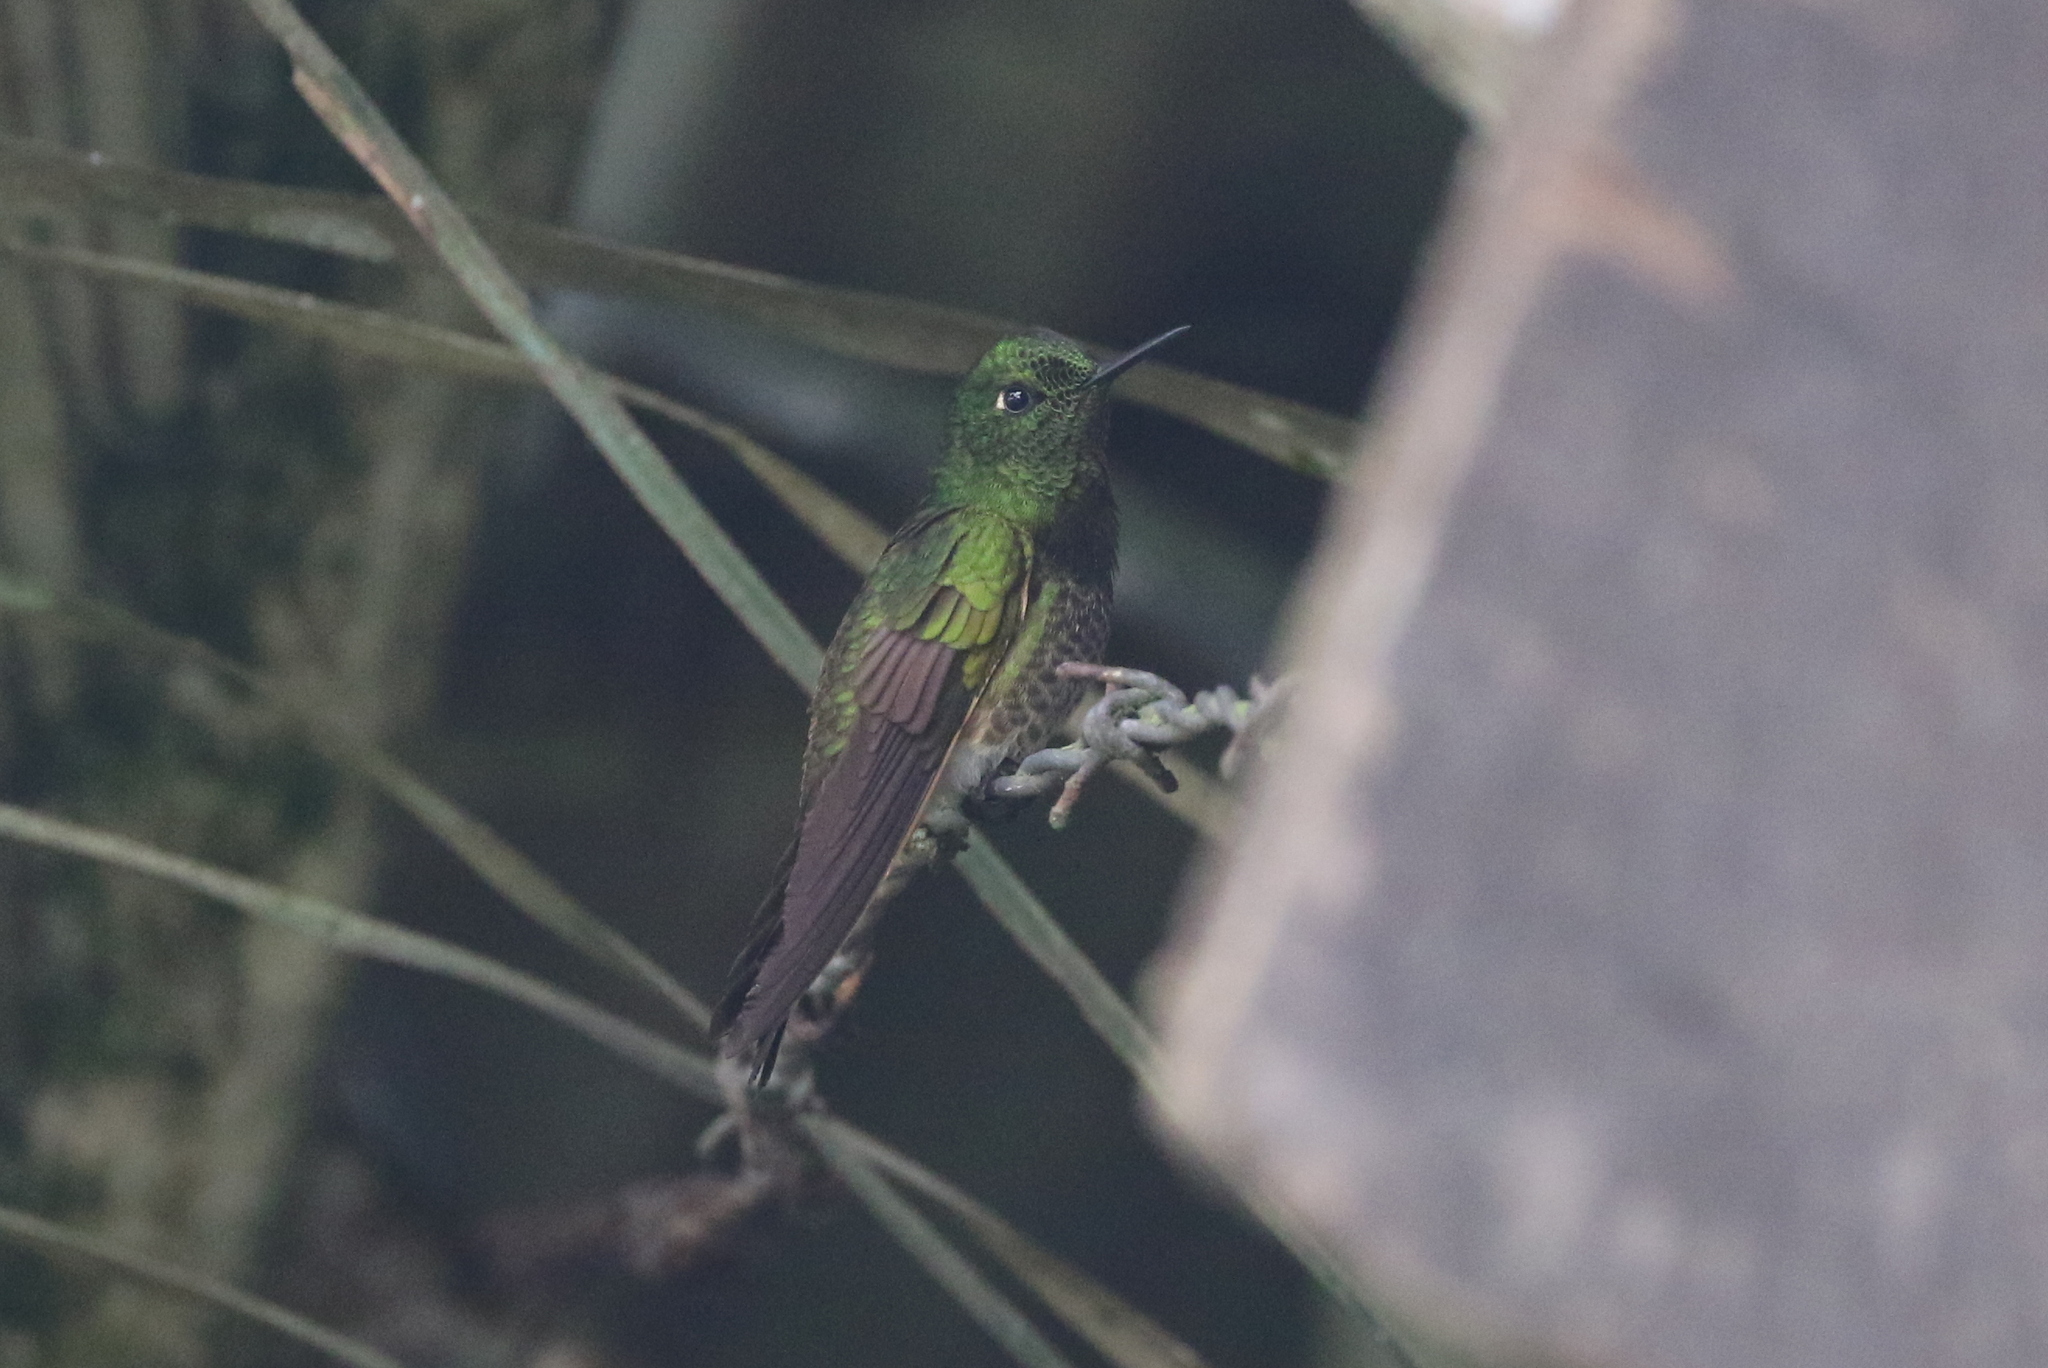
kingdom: Animalia
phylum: Chordata
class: Aves
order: Apodiformes
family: Trochilidae
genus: Boissonneaua
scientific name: Boissonneaua flavescens
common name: Buff-tailed coronet
